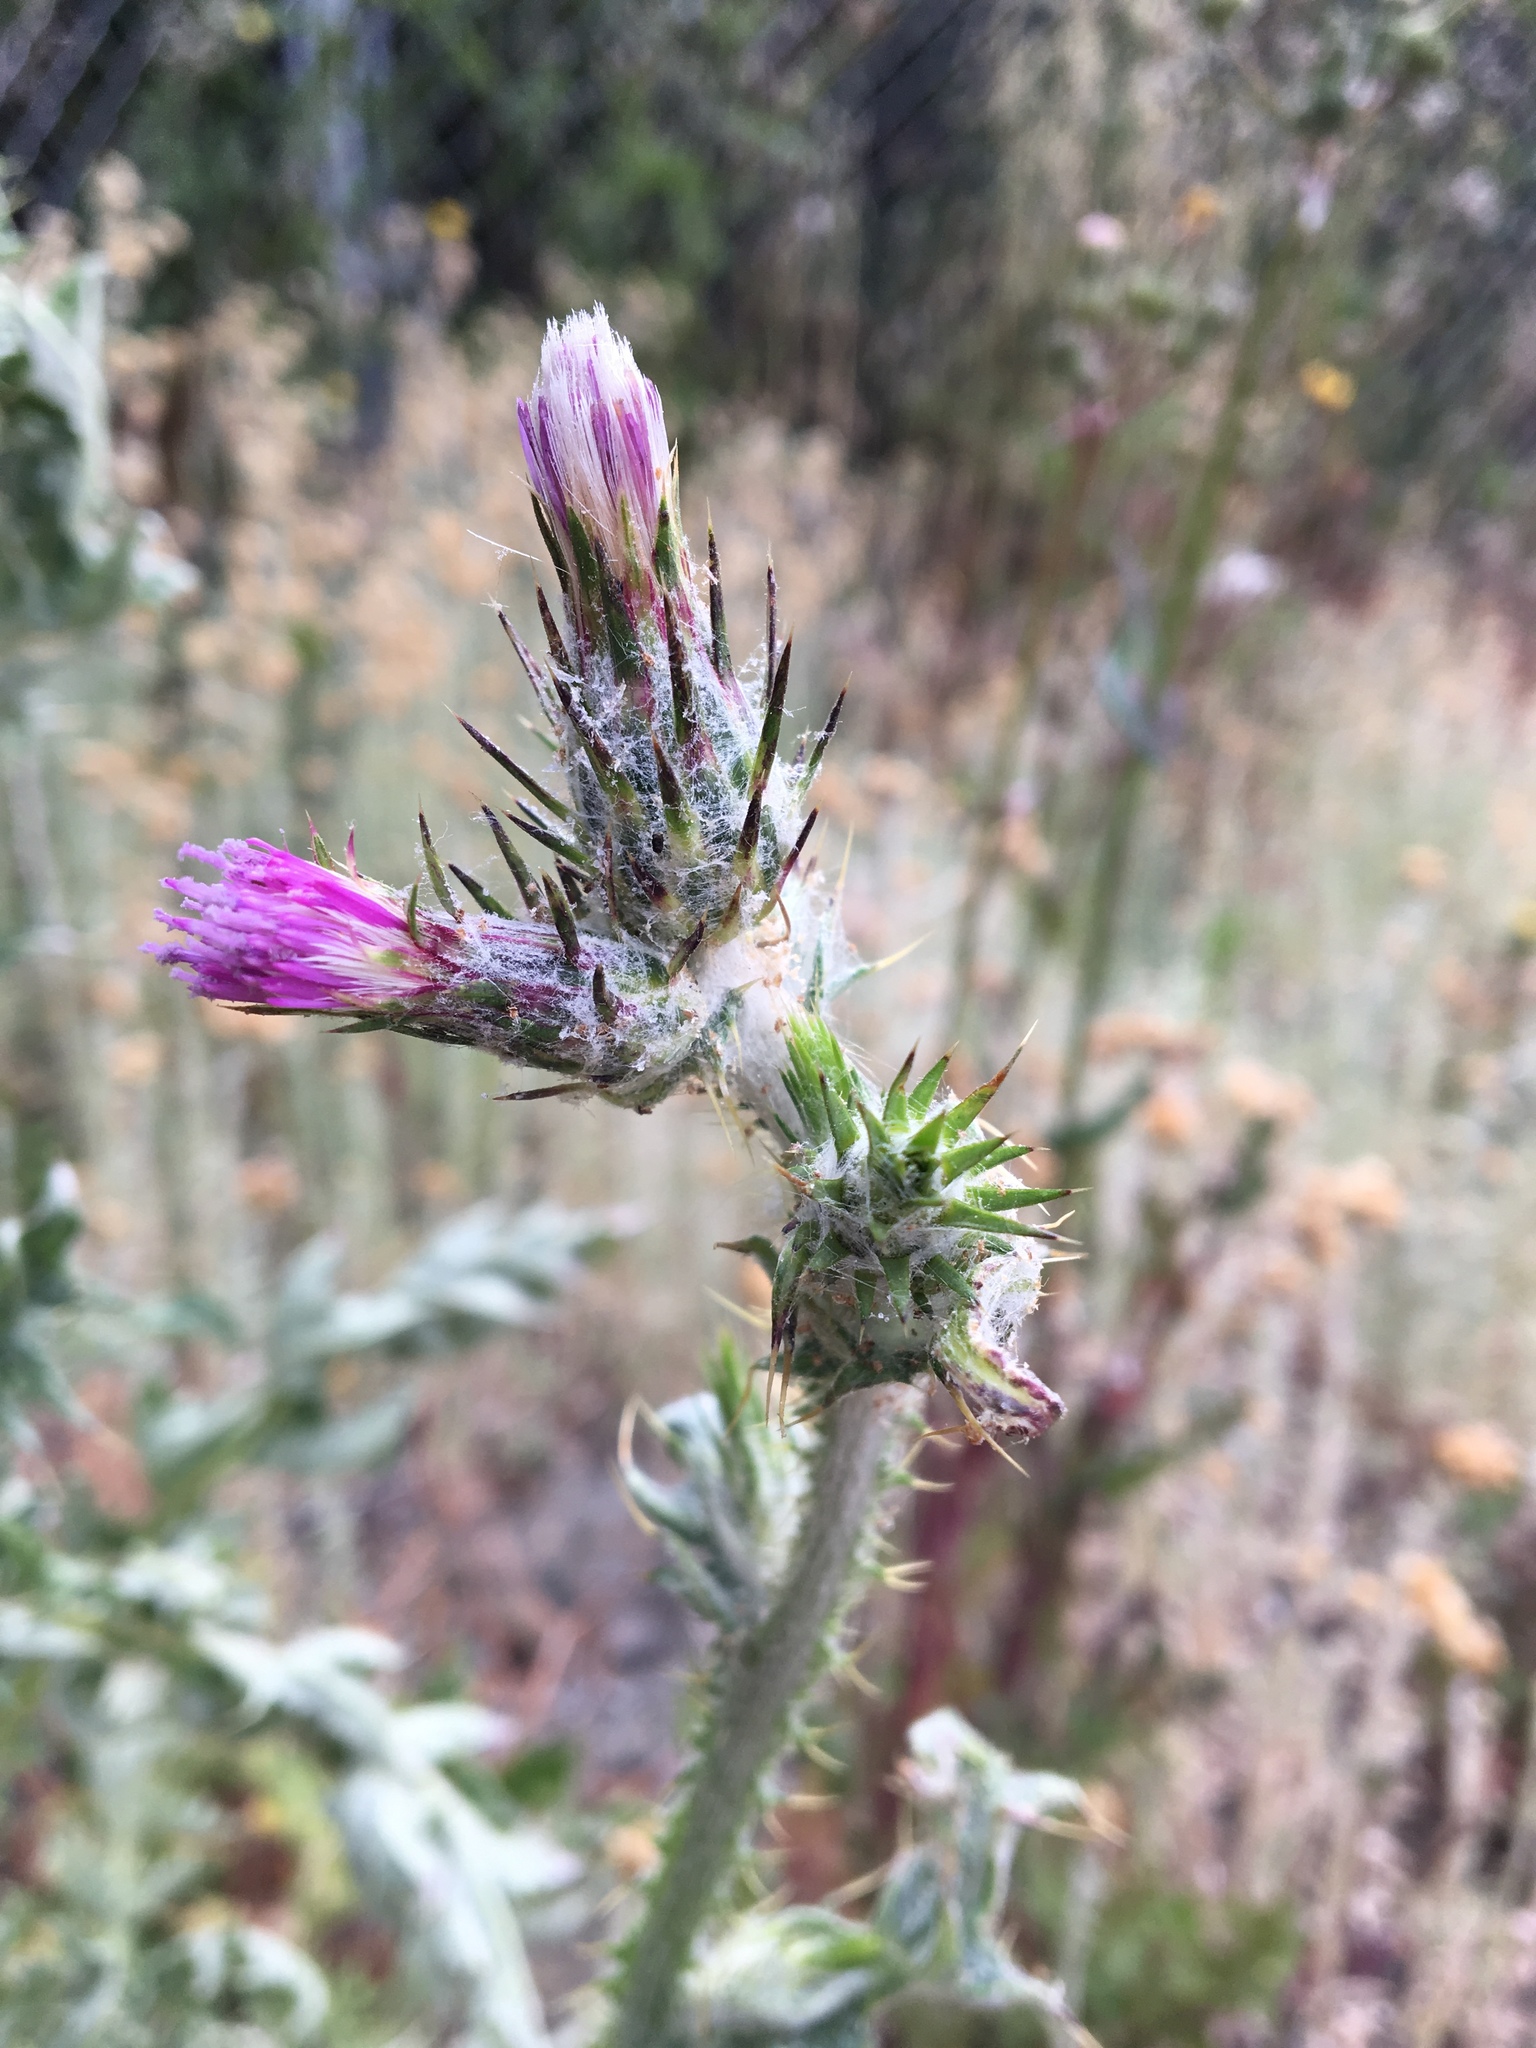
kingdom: Plantae
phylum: Tracheophyta
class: Magnoliopsida
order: Asterales
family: Asteraceae
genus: Carduus
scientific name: Carduus pycnocephalus
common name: Plymouth thistle
